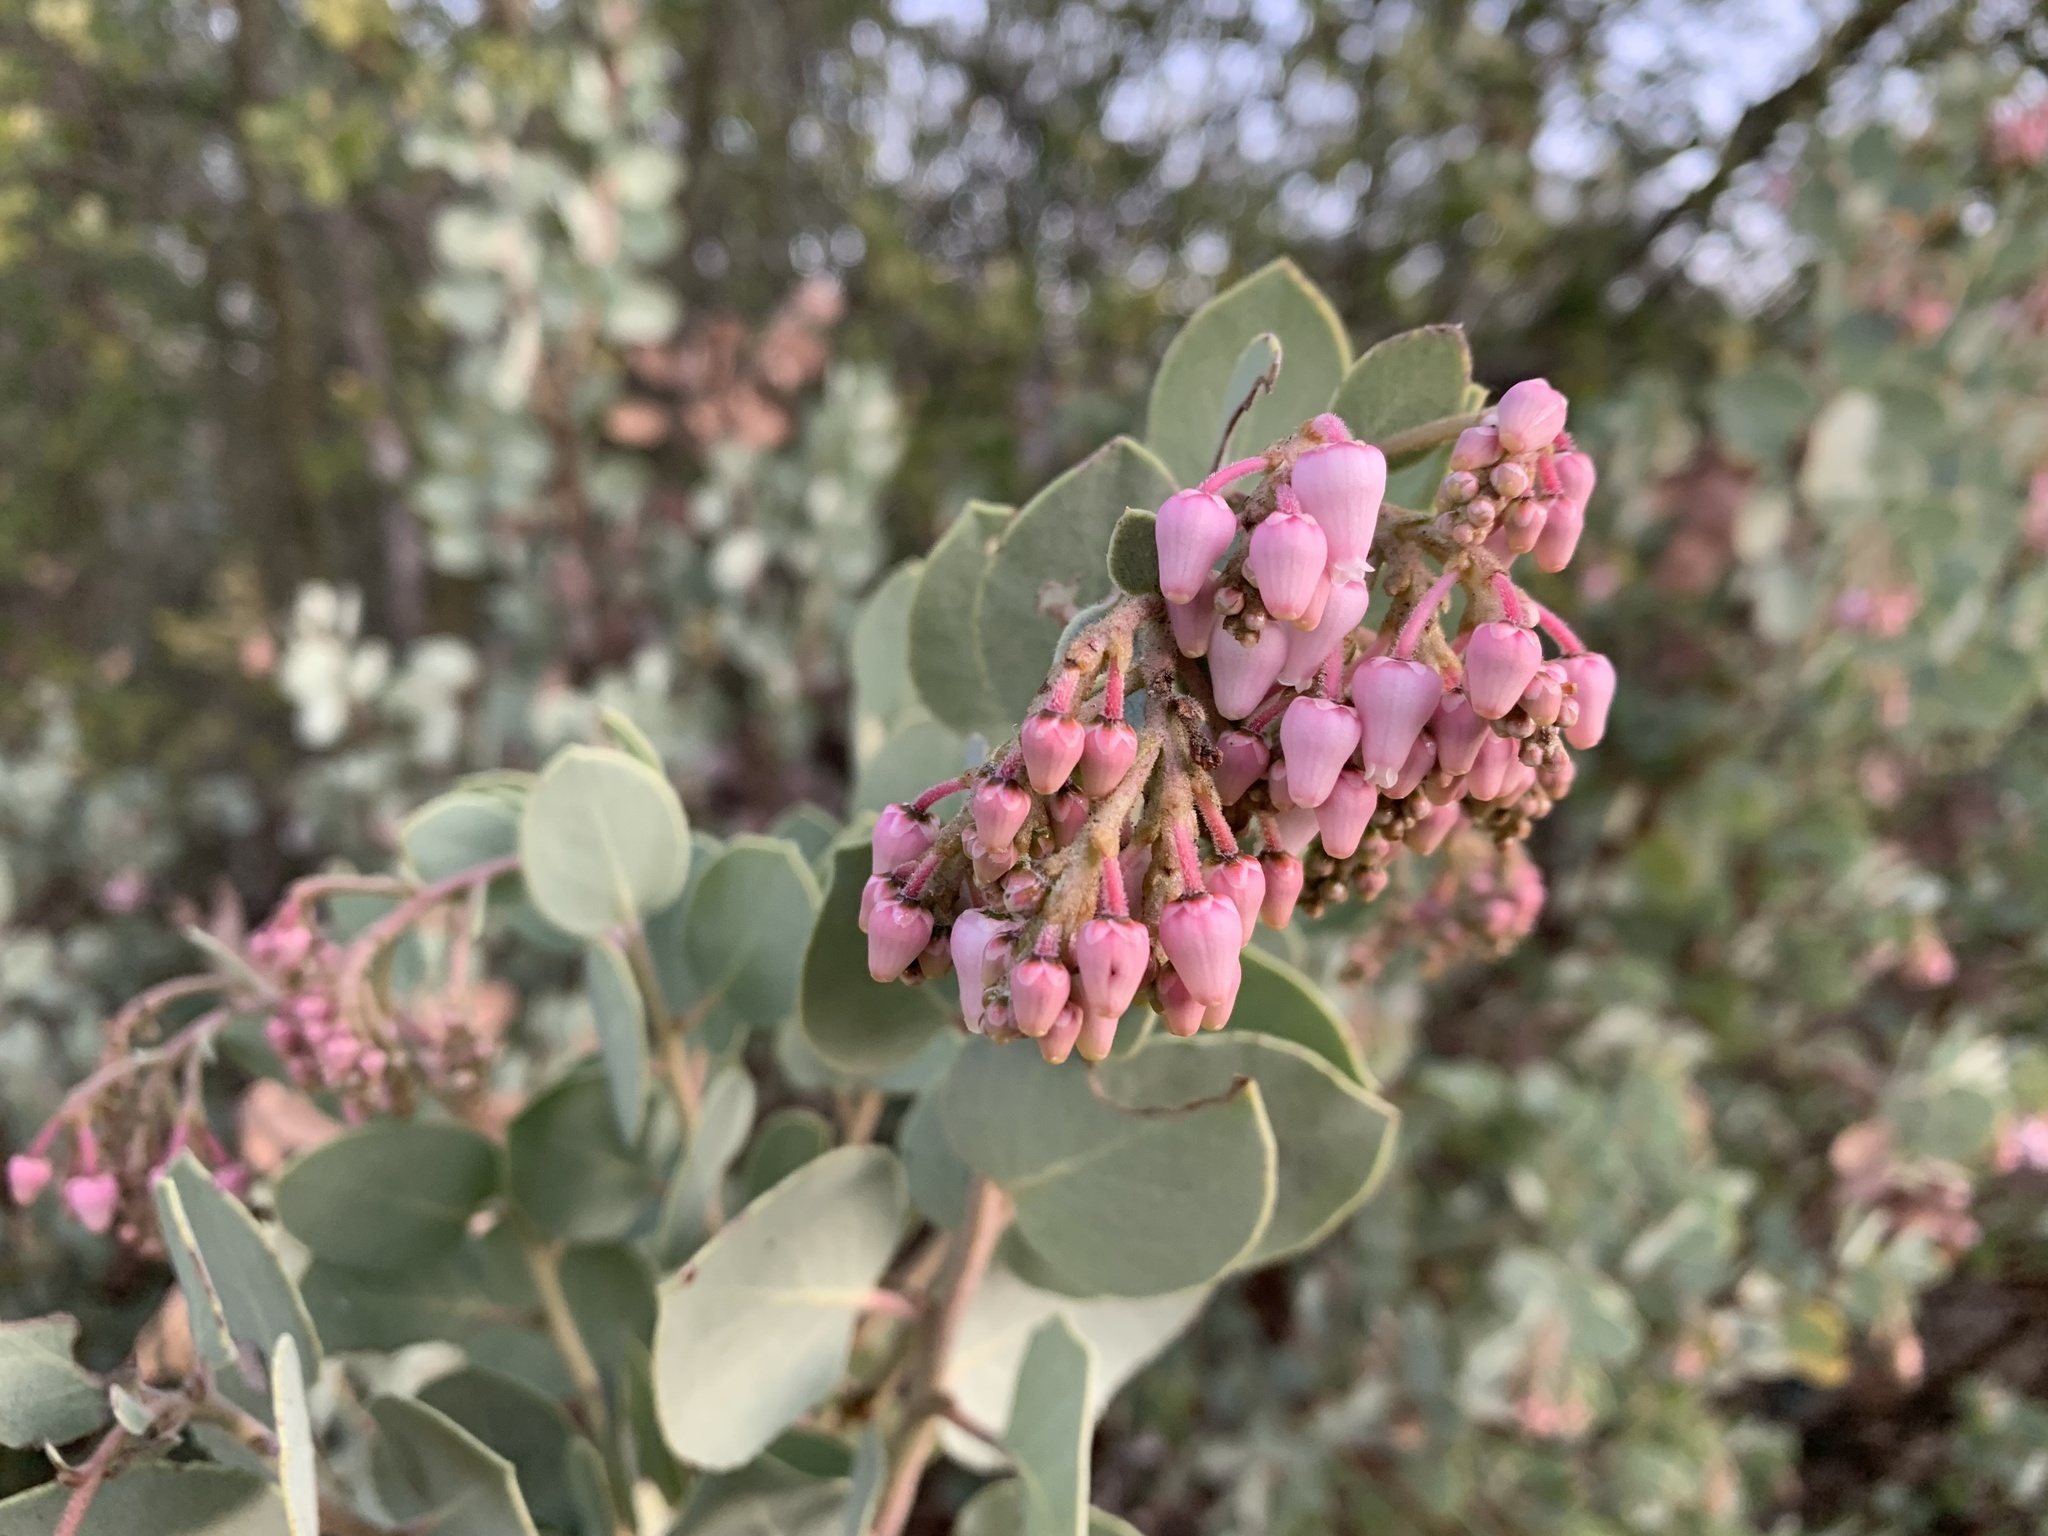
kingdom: Plantae
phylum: Tracheophyta
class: Magnoliopsida
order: Ericales
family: Ericaceae
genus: Arctostaphylos
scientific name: Arctostaphylos viscida
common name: White-leaf manzanita
